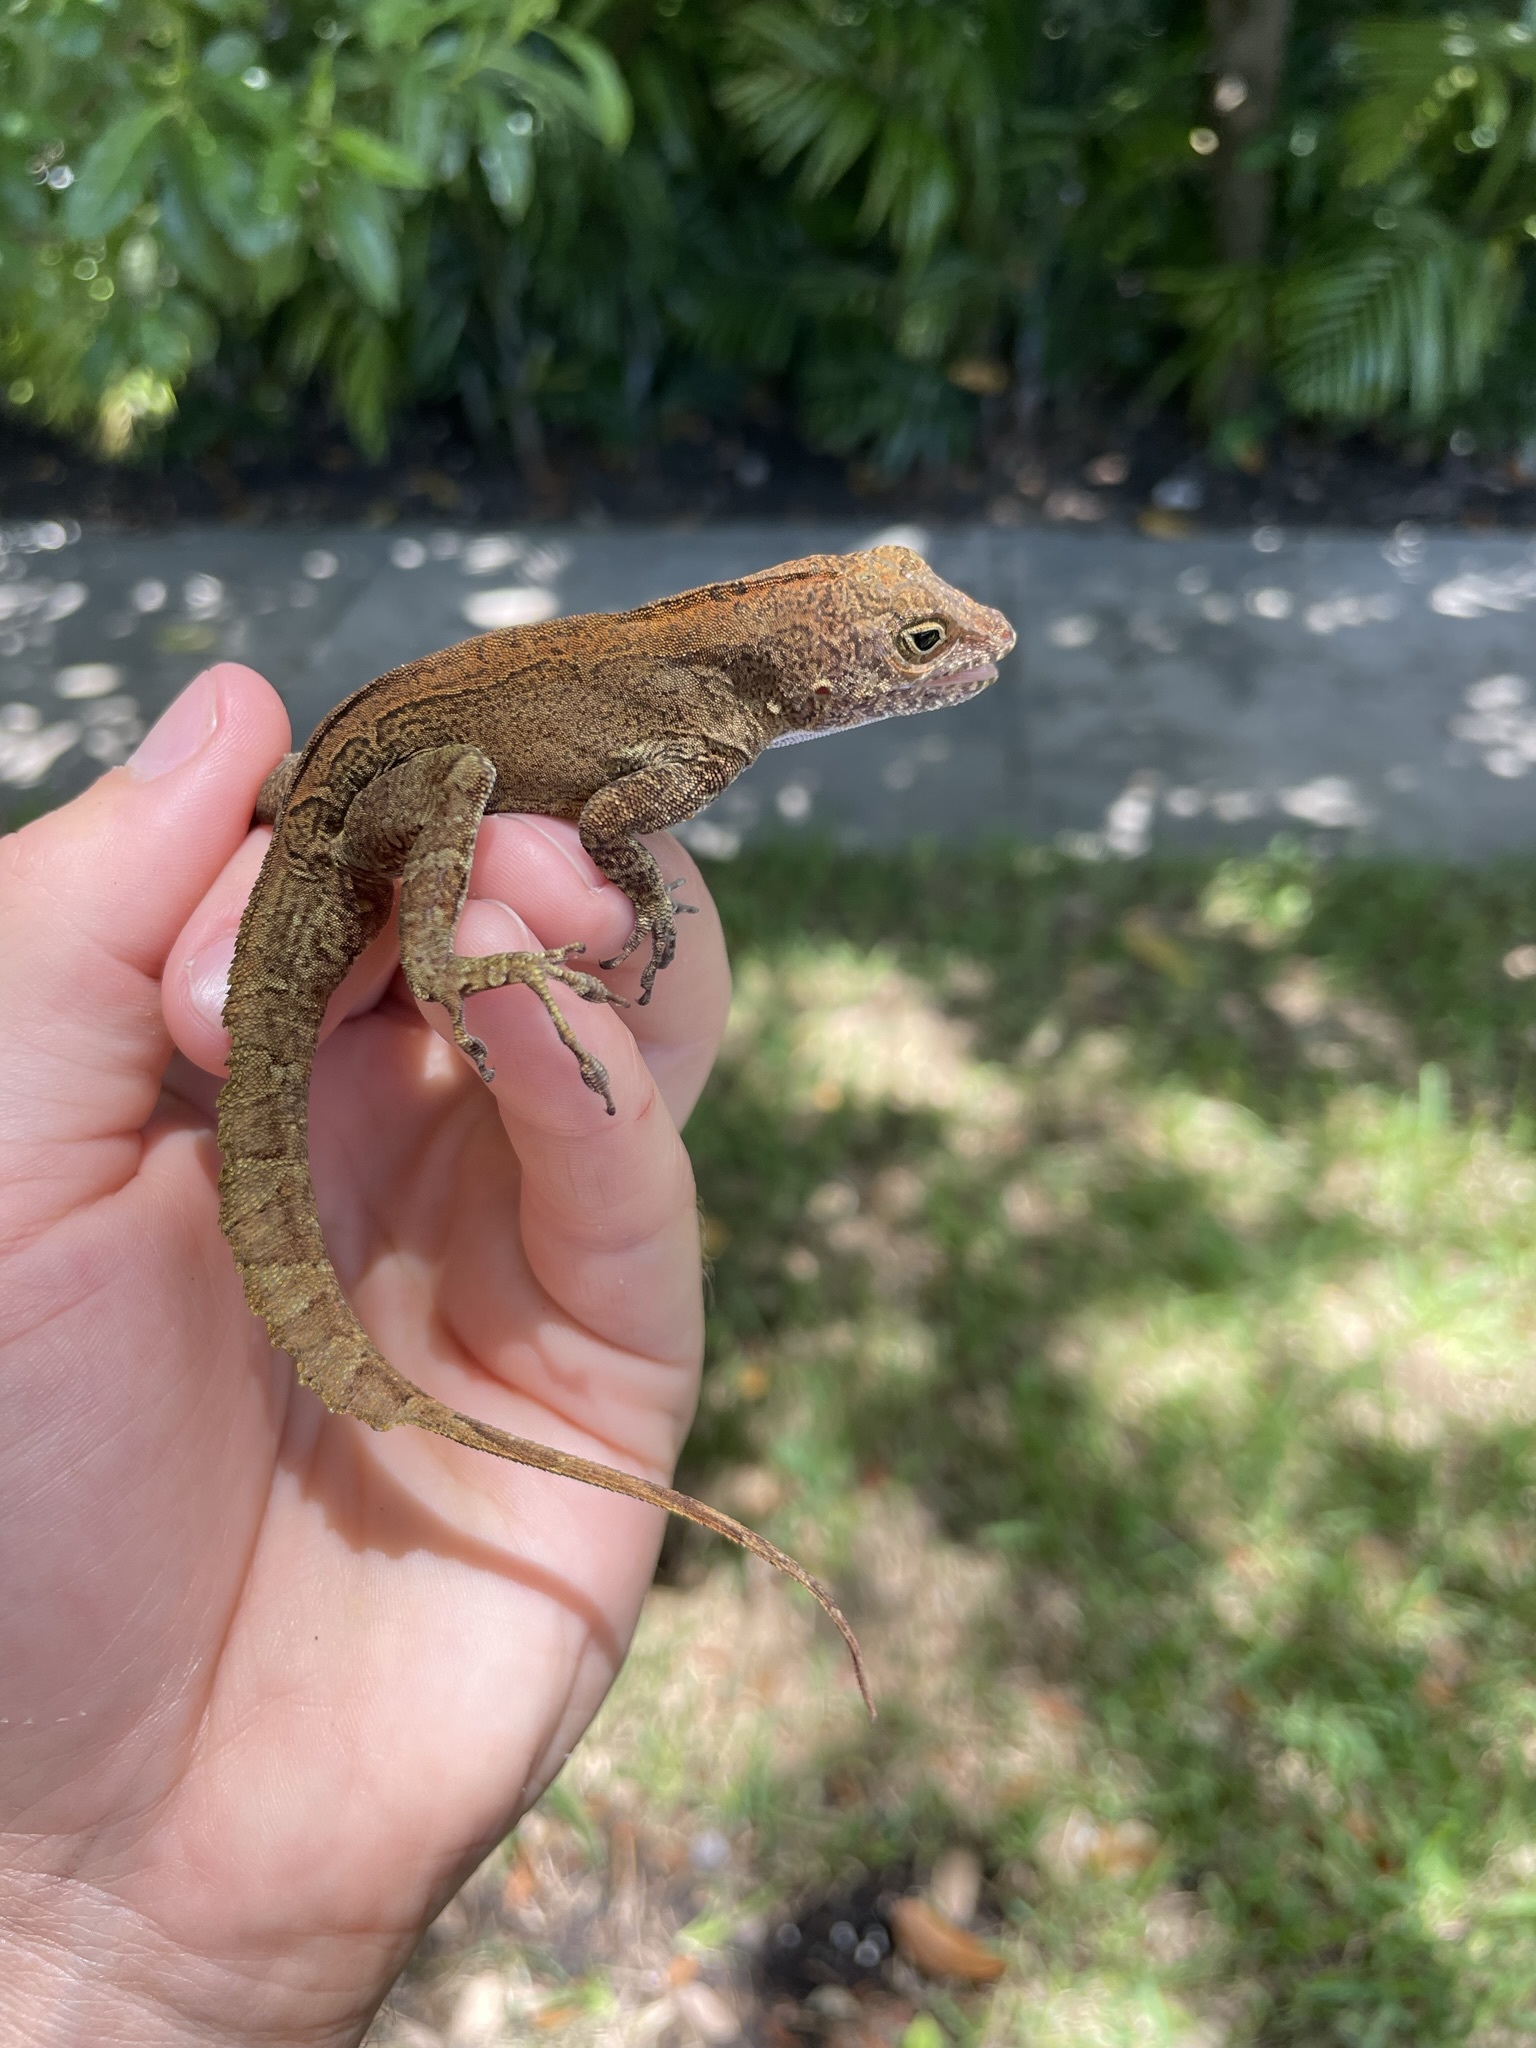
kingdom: Animalia
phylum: Chordata
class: Squamata
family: Dactyloidae
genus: Anolis
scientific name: Anolis cristatellus
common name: Crested anole
